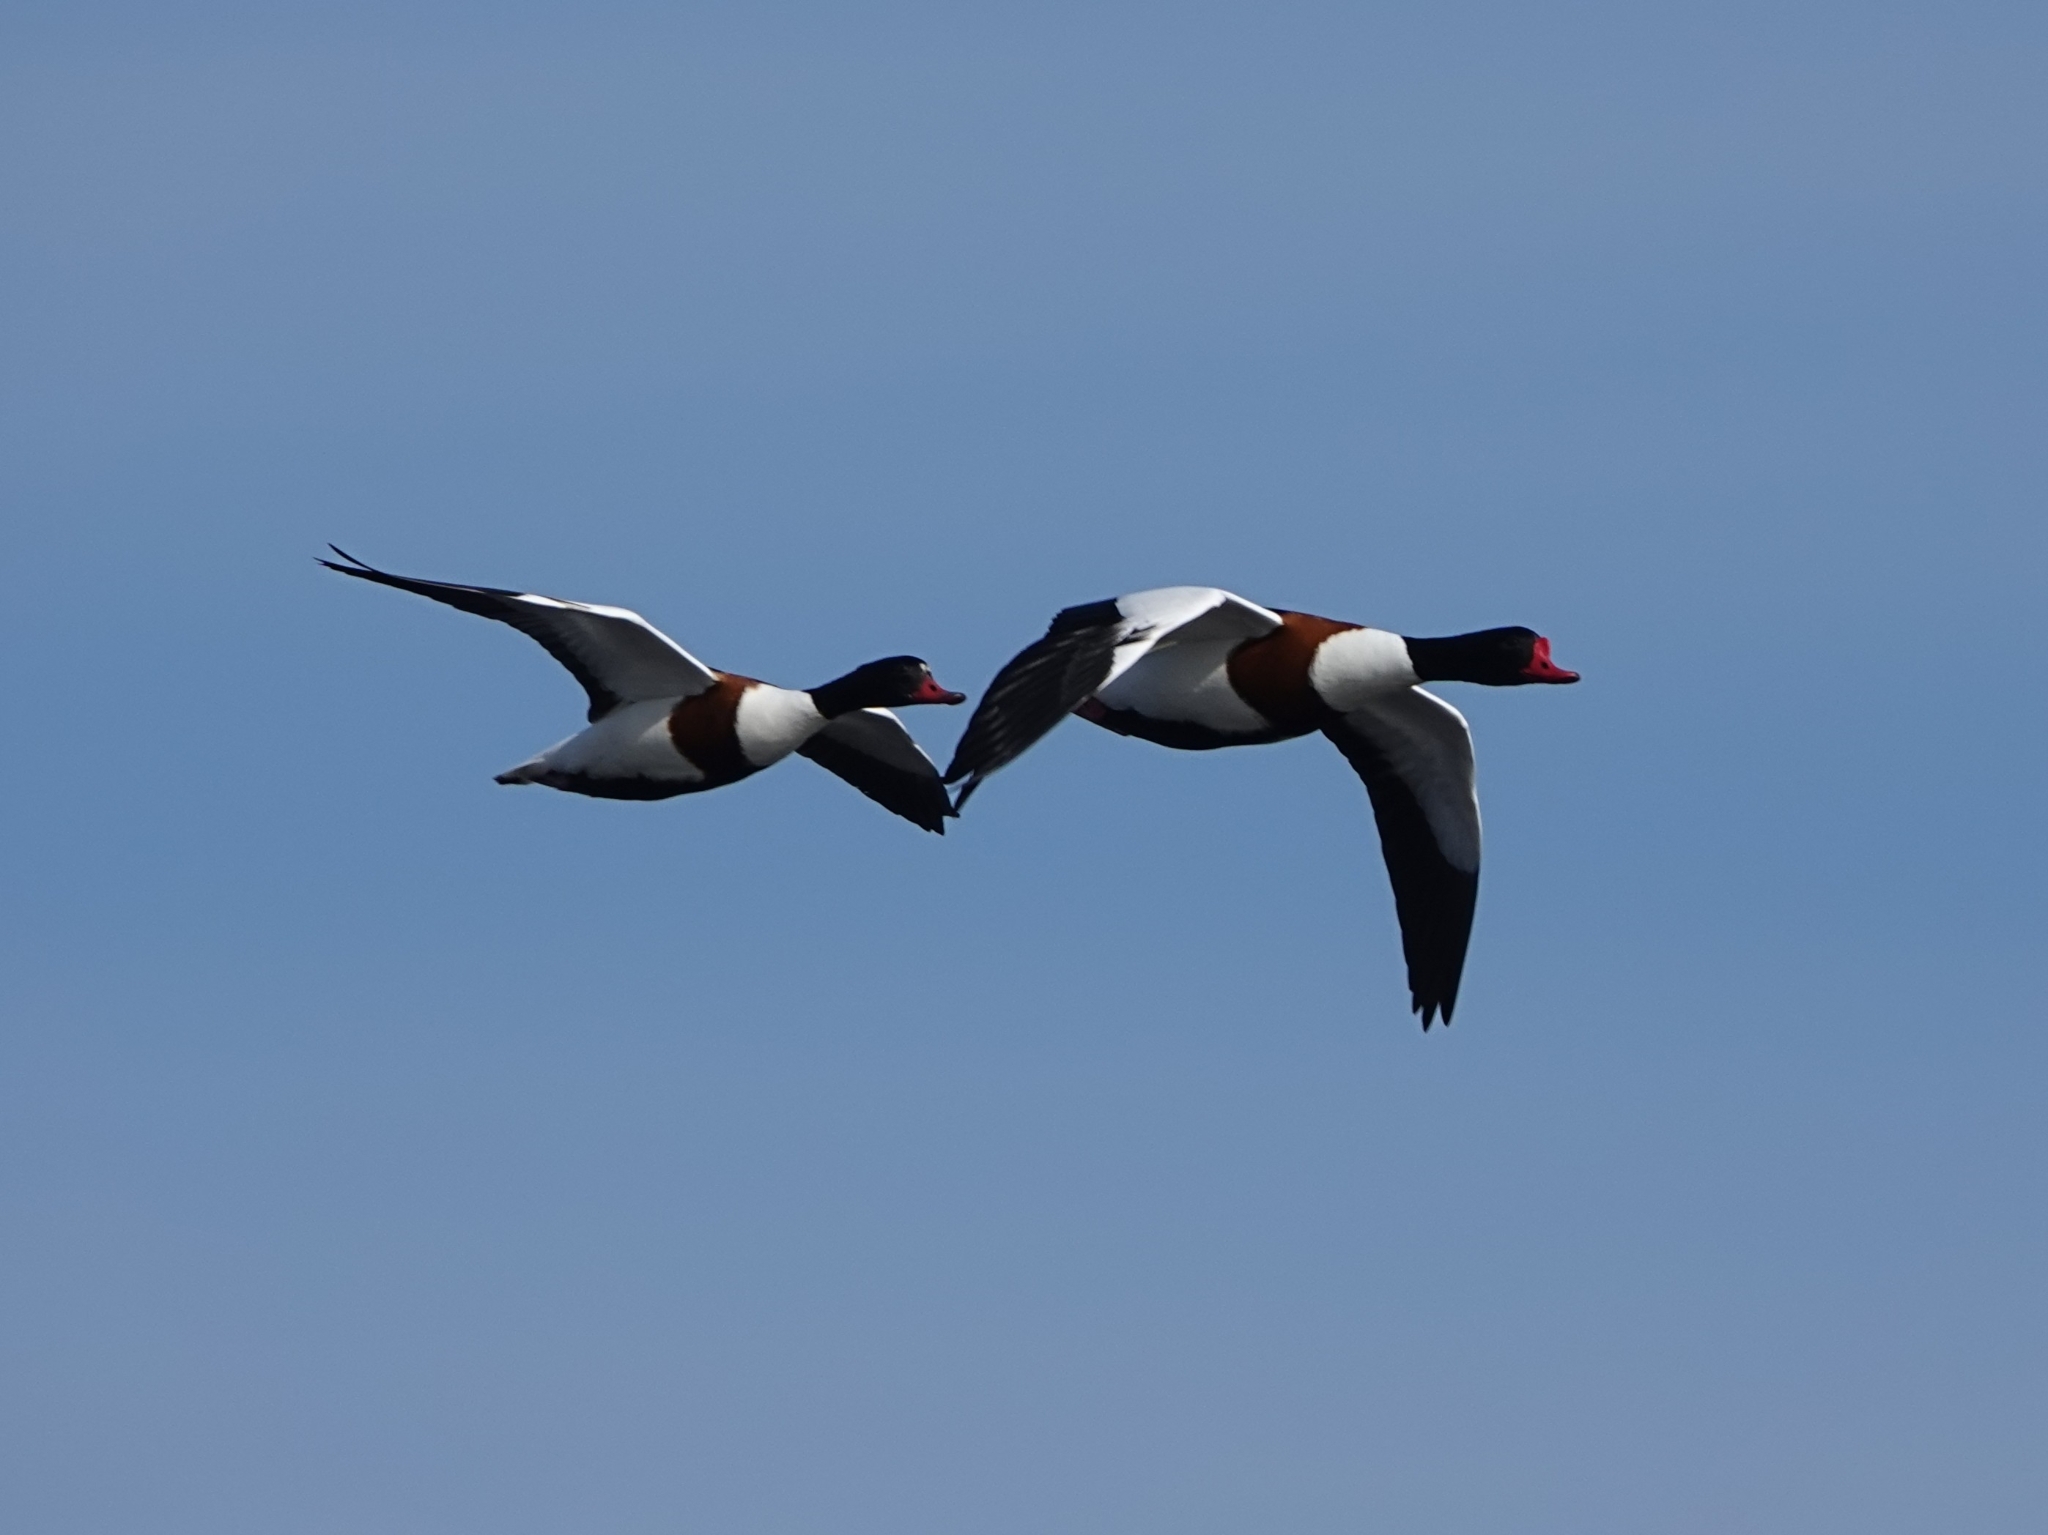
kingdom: Animalia
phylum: Chordata
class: Aves
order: Anseriformes
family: Anatidae
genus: Tadorna
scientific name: Tadorna tadorna
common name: Common shelduck
